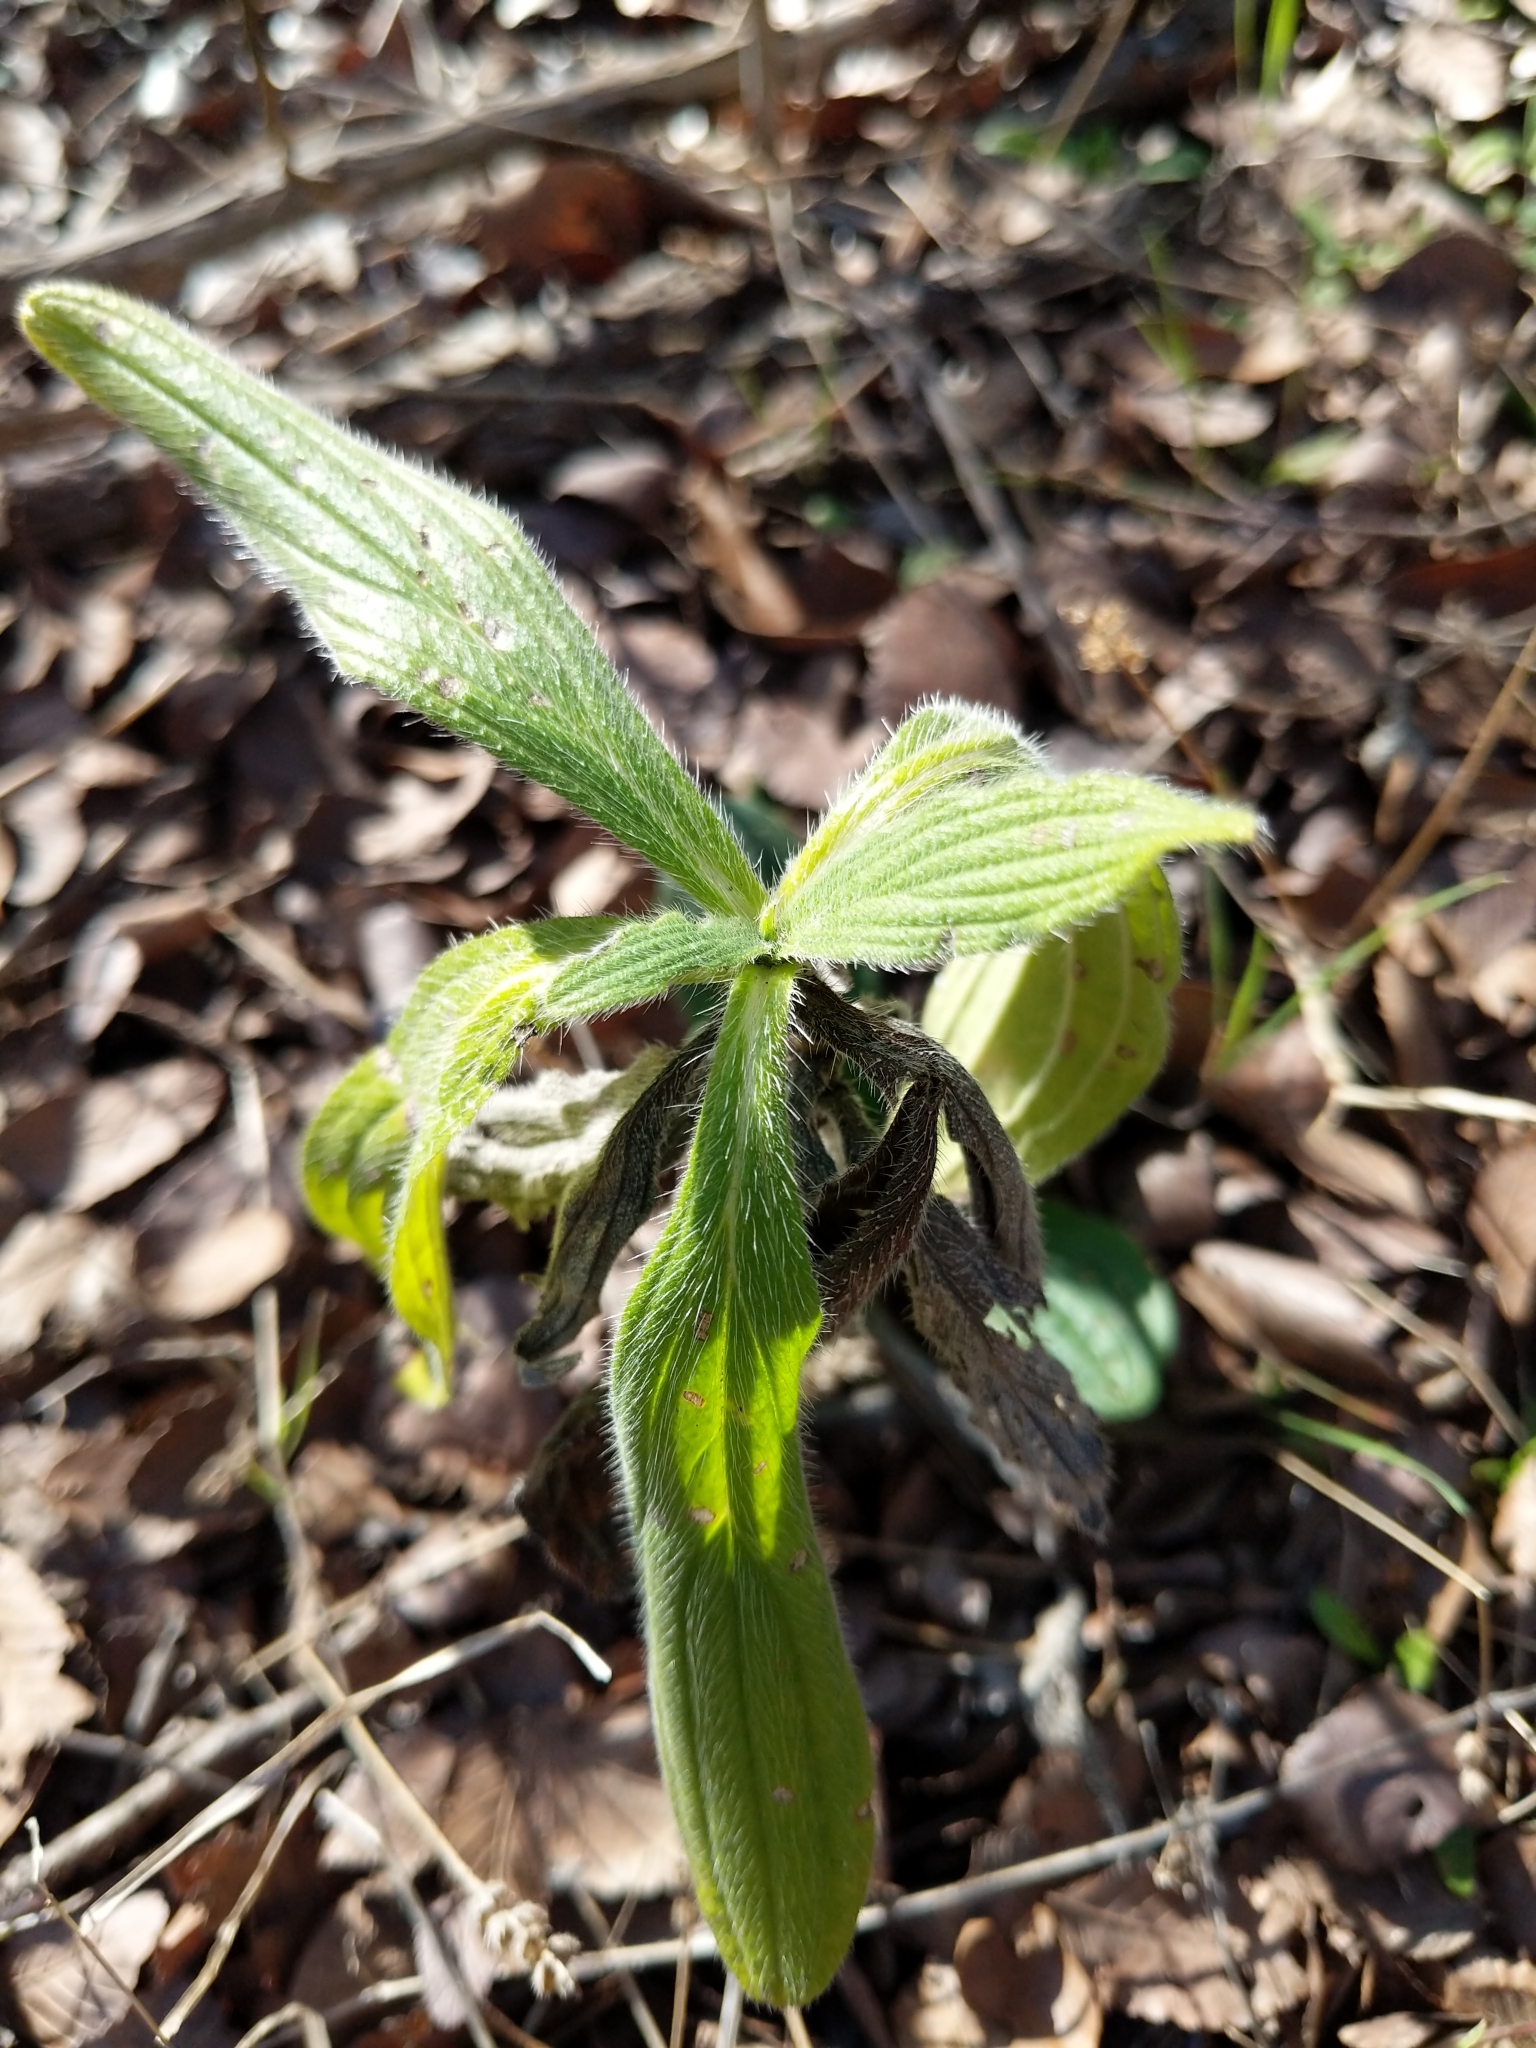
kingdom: Plantae
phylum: Tracheophyta
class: Magnoliopsida
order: Boraginales
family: Boraginaceae
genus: Lithospermum
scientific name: Lithospermum caroliniense
